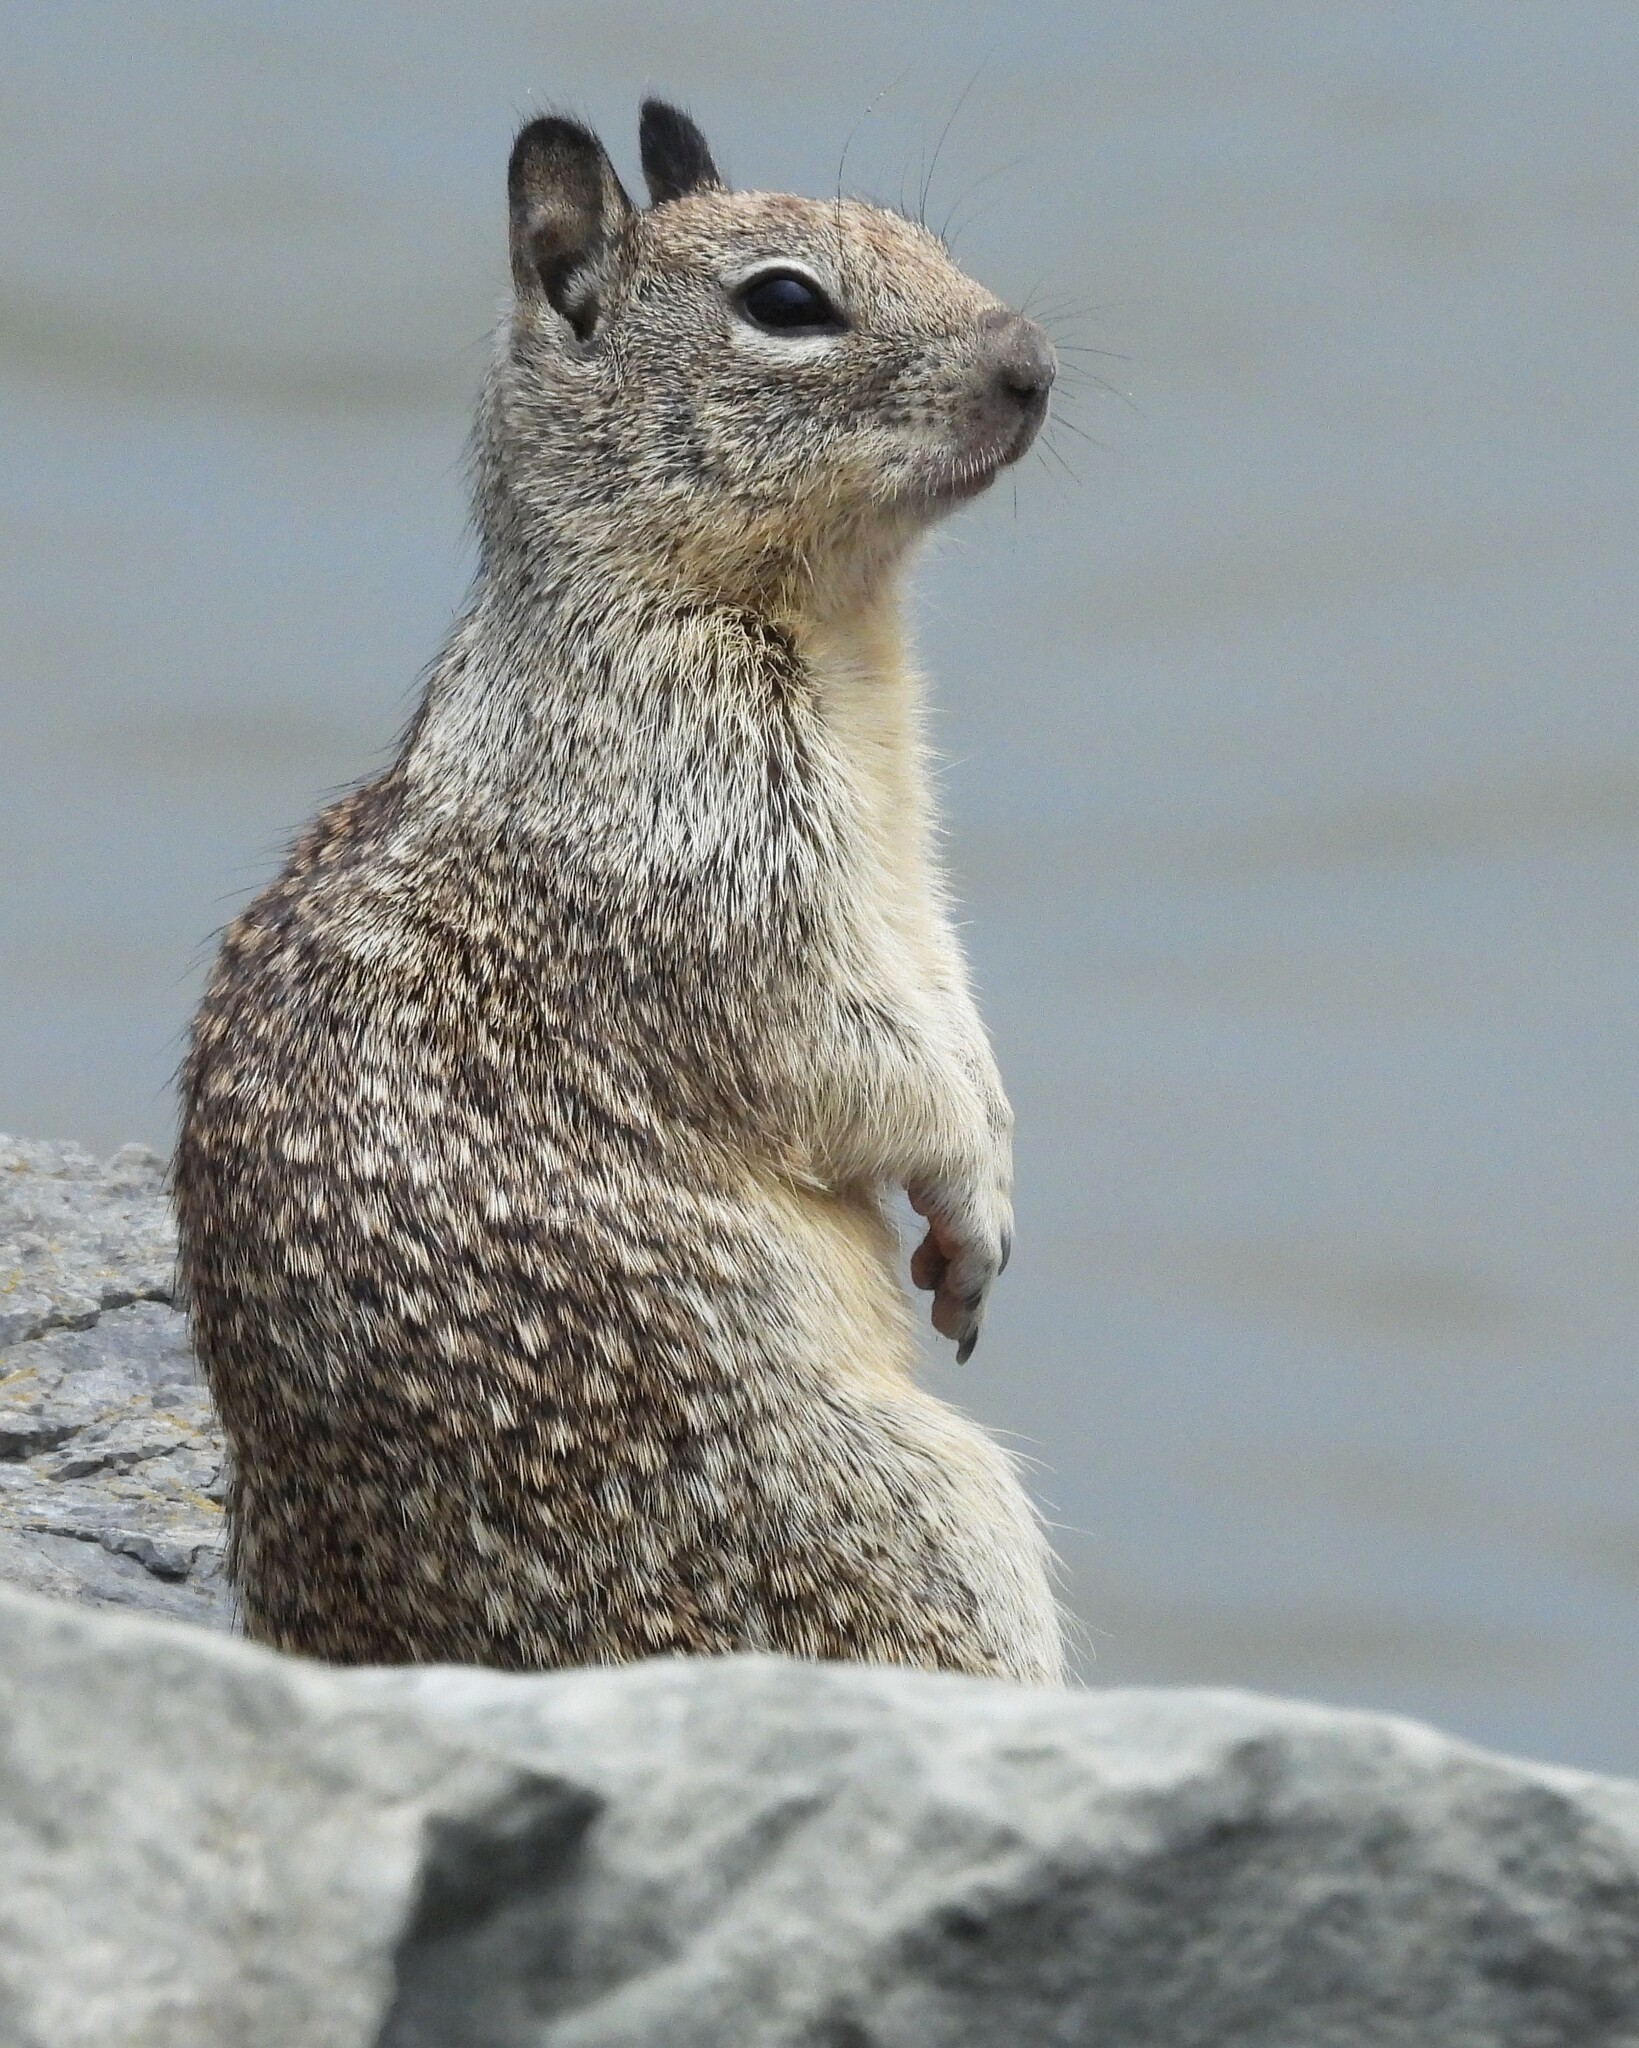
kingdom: Animalia
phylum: Chordata
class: Mammalia
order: Rodentia
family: Sciuridae
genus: Otospermophilus
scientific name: Otospermophilus beecheyi
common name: California ground squirrel
